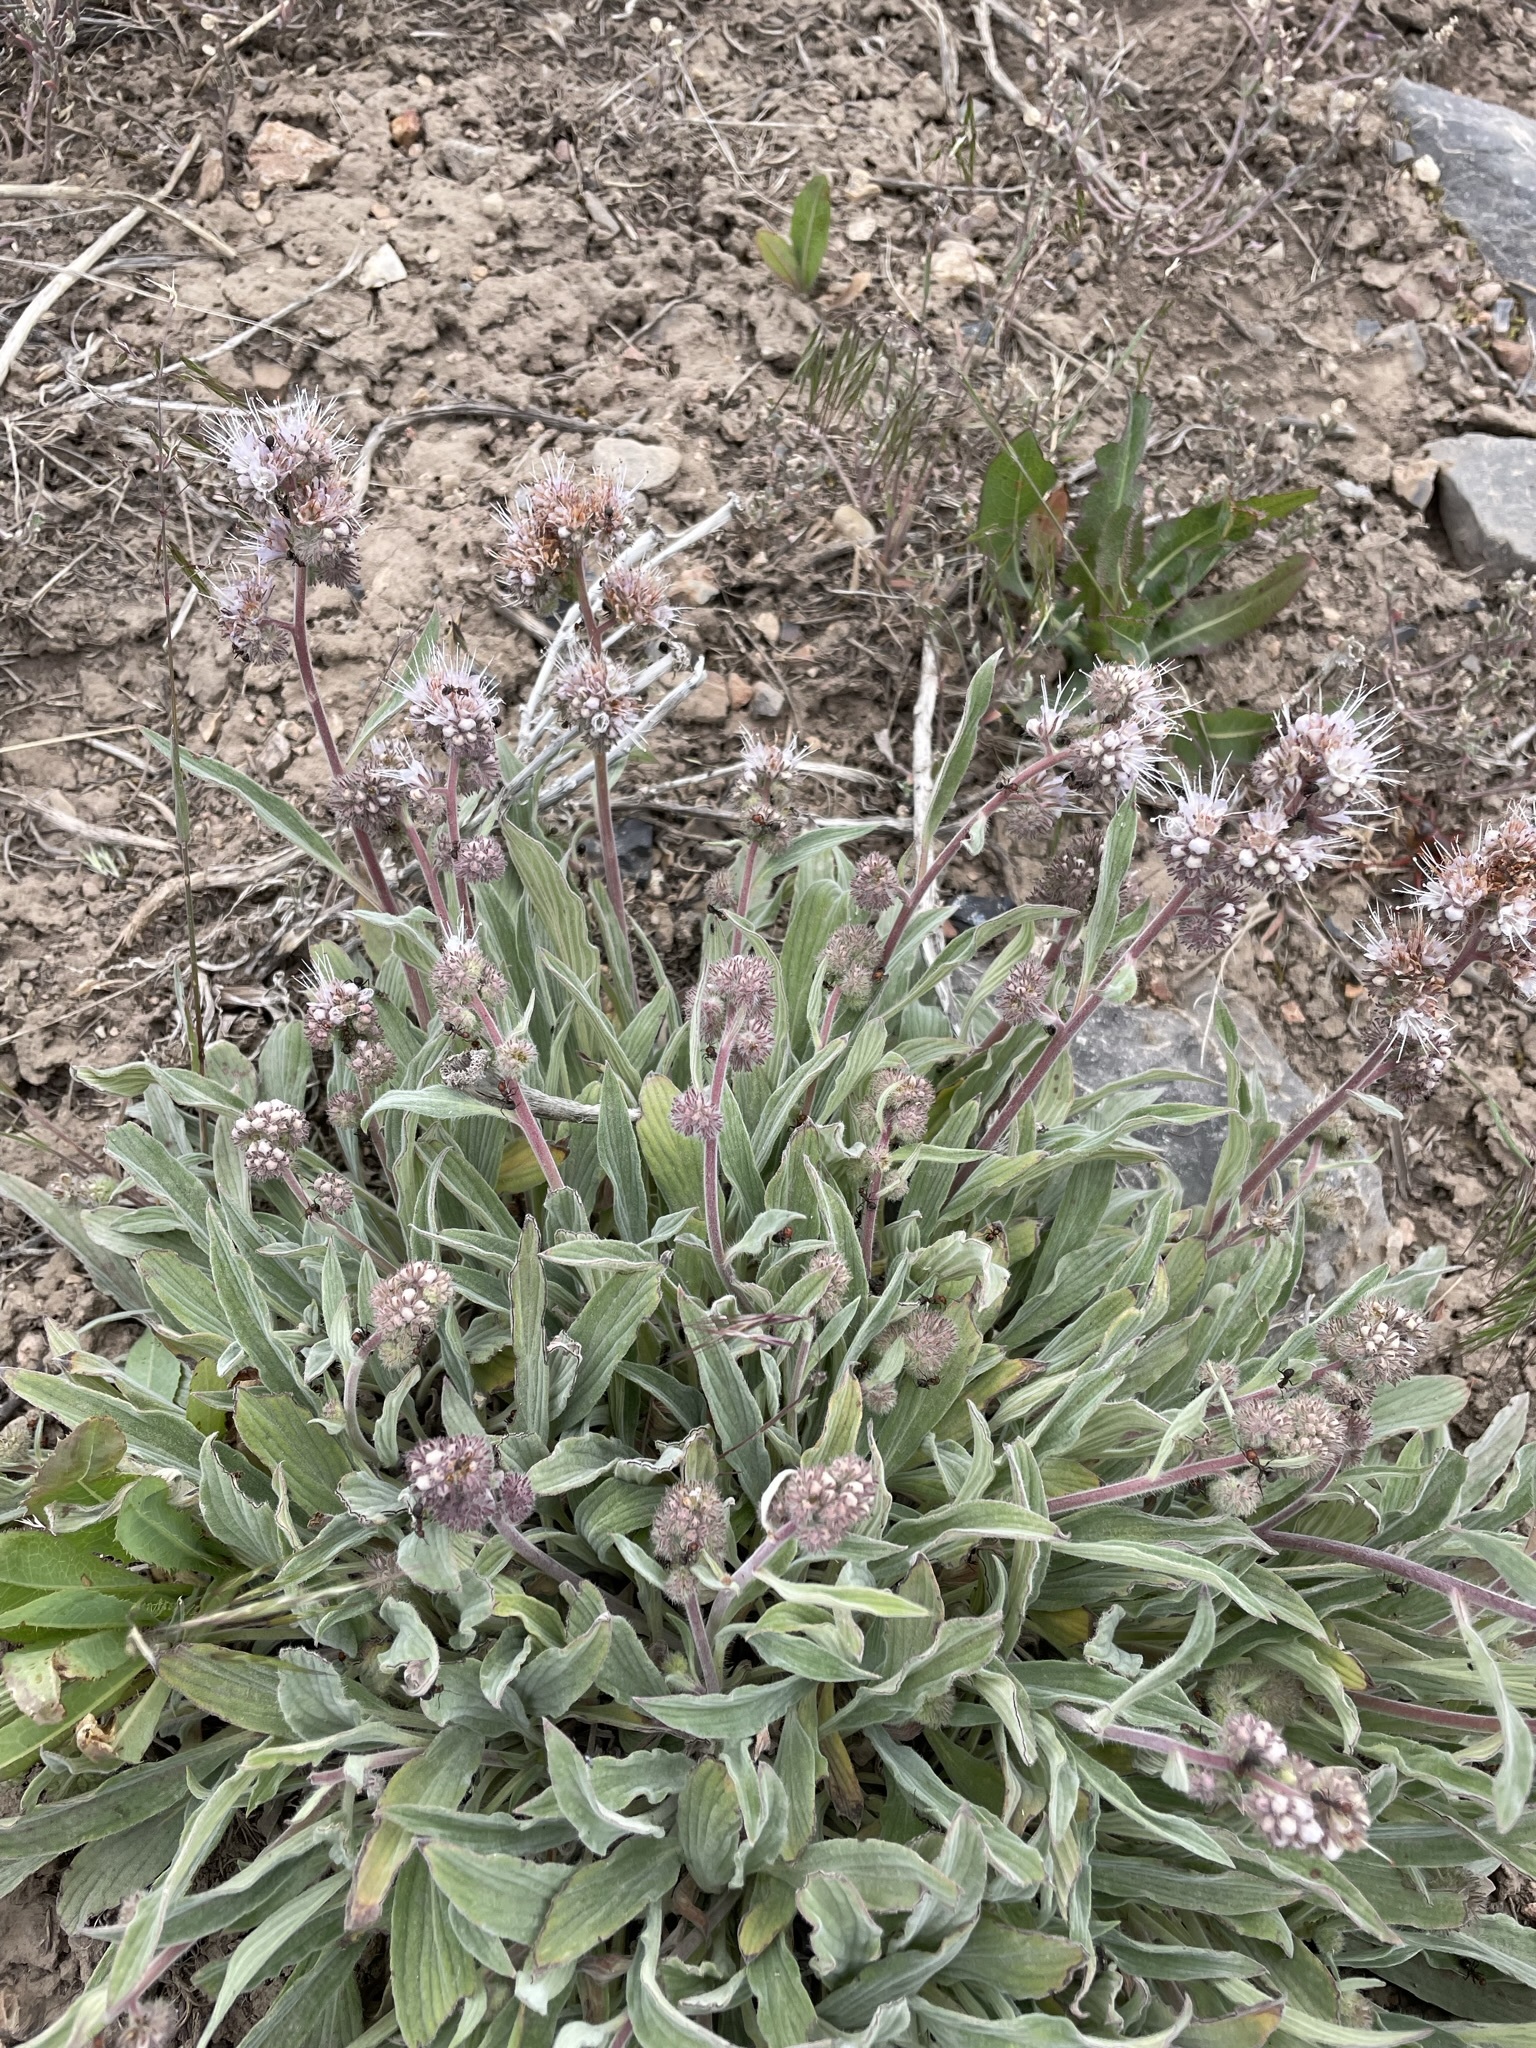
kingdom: Plantae
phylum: Tracheophyta
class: Magnoliopsida
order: Boraginales
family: Hydrophyllaceae
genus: Phacelia
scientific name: Phacelia hastata
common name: Silver-leaved phacelia
